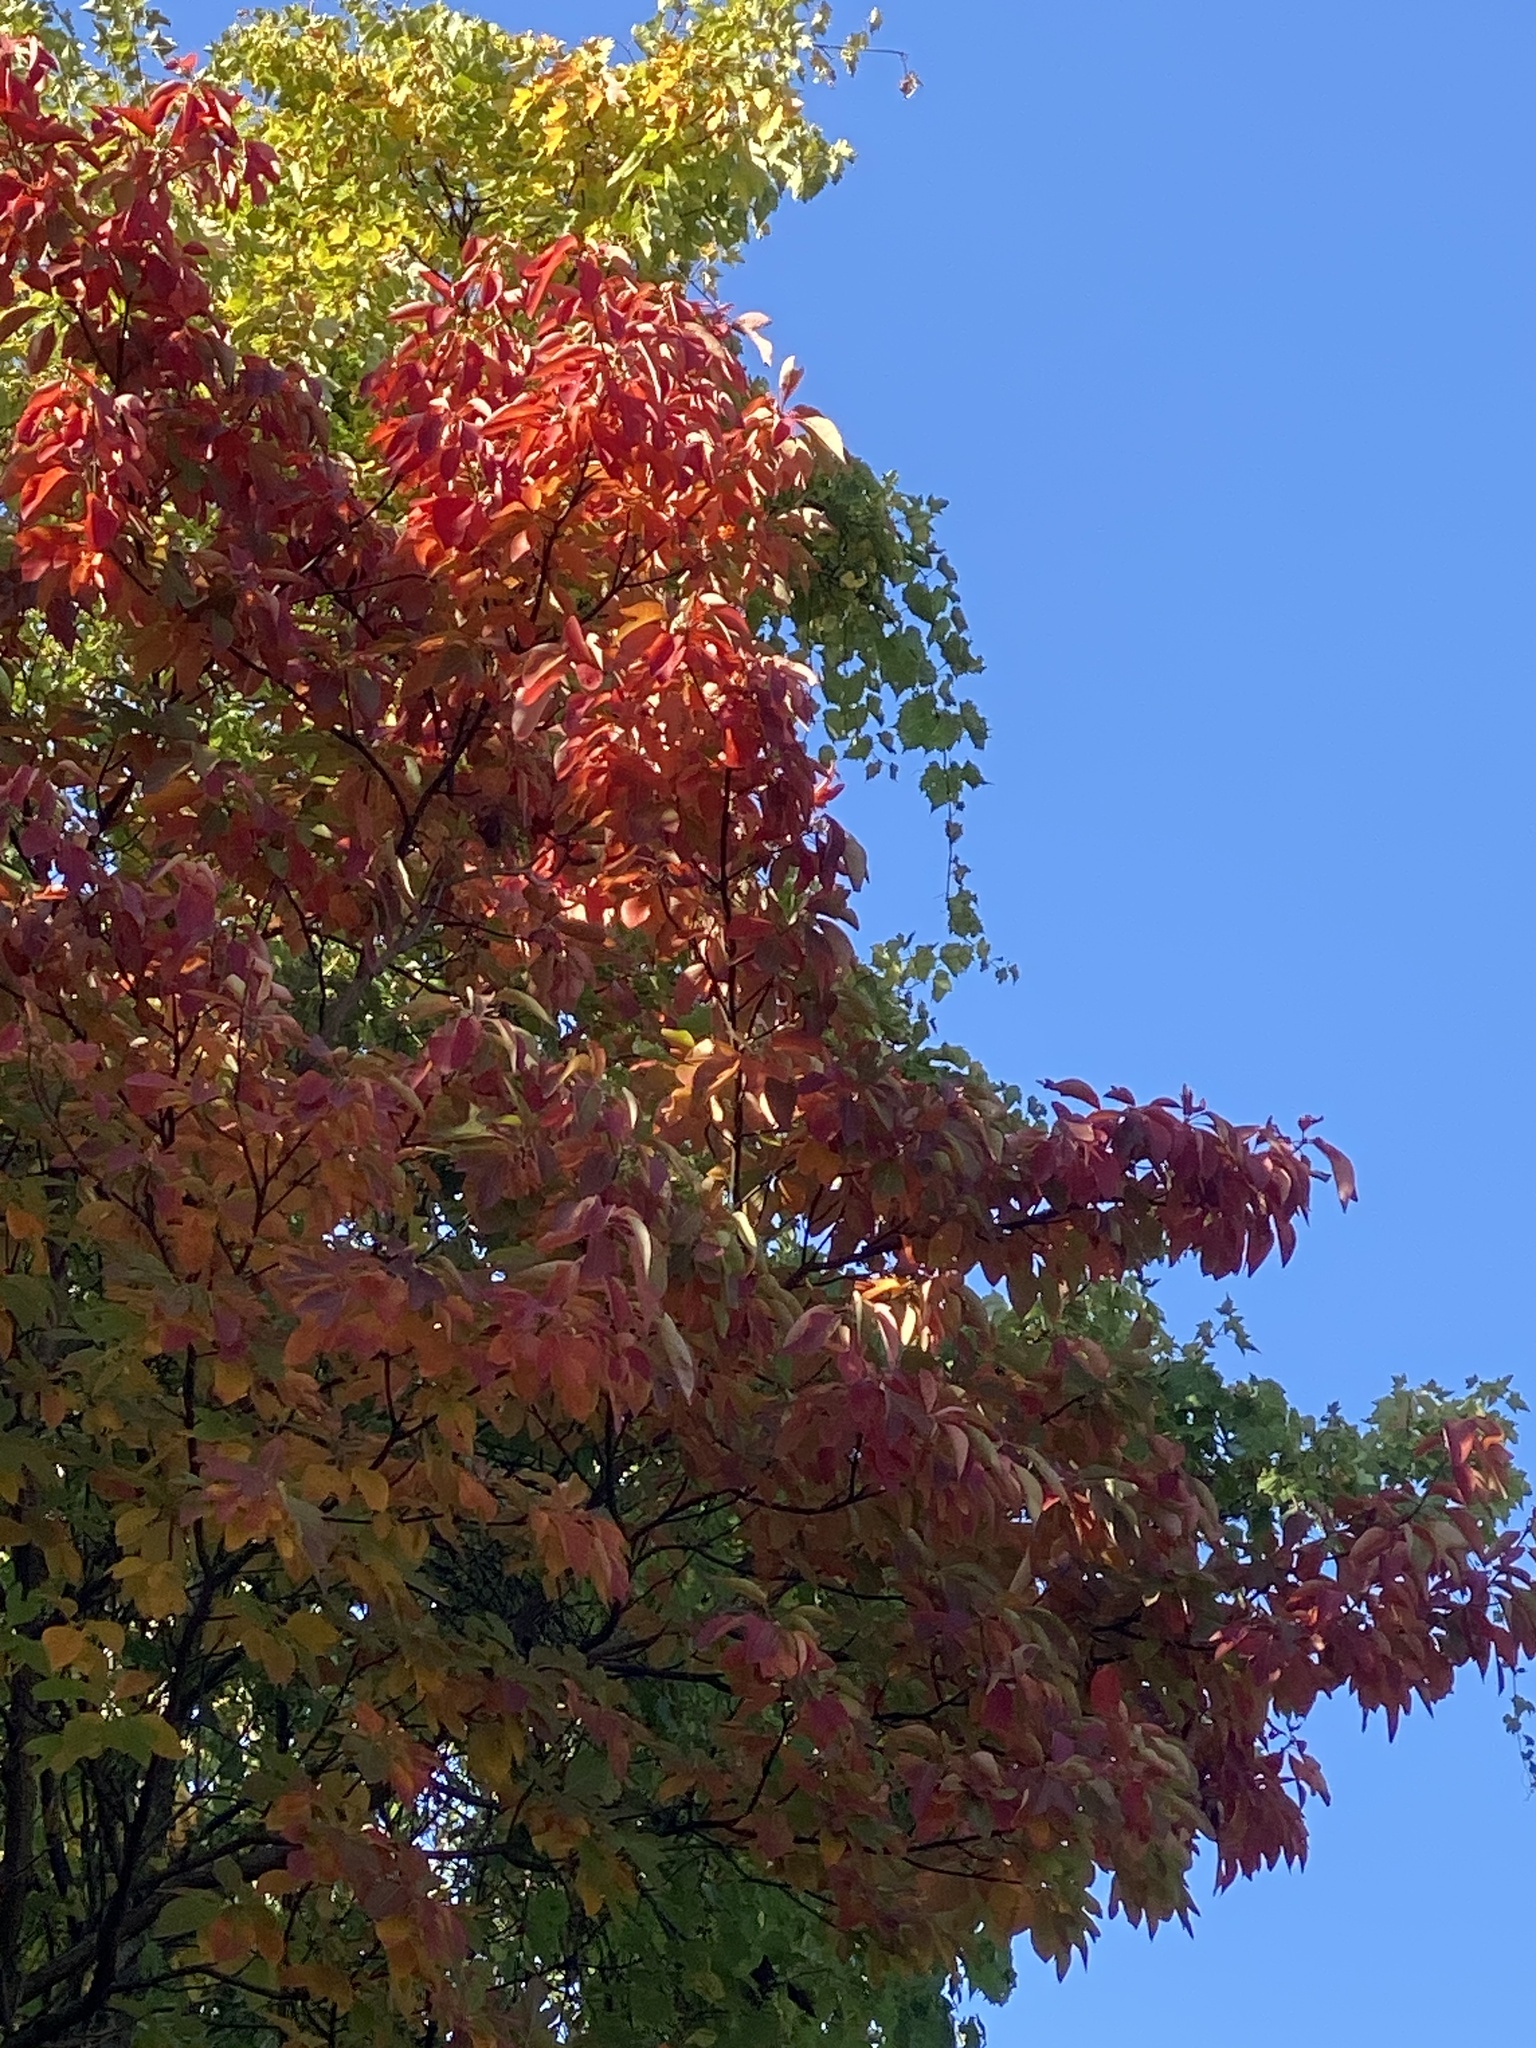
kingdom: Plantae
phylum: Tracheophyta
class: Magnoliopsida
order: Laurales
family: Lauraceae
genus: Sassafras
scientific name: Sassafras albidum
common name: Sassafras
